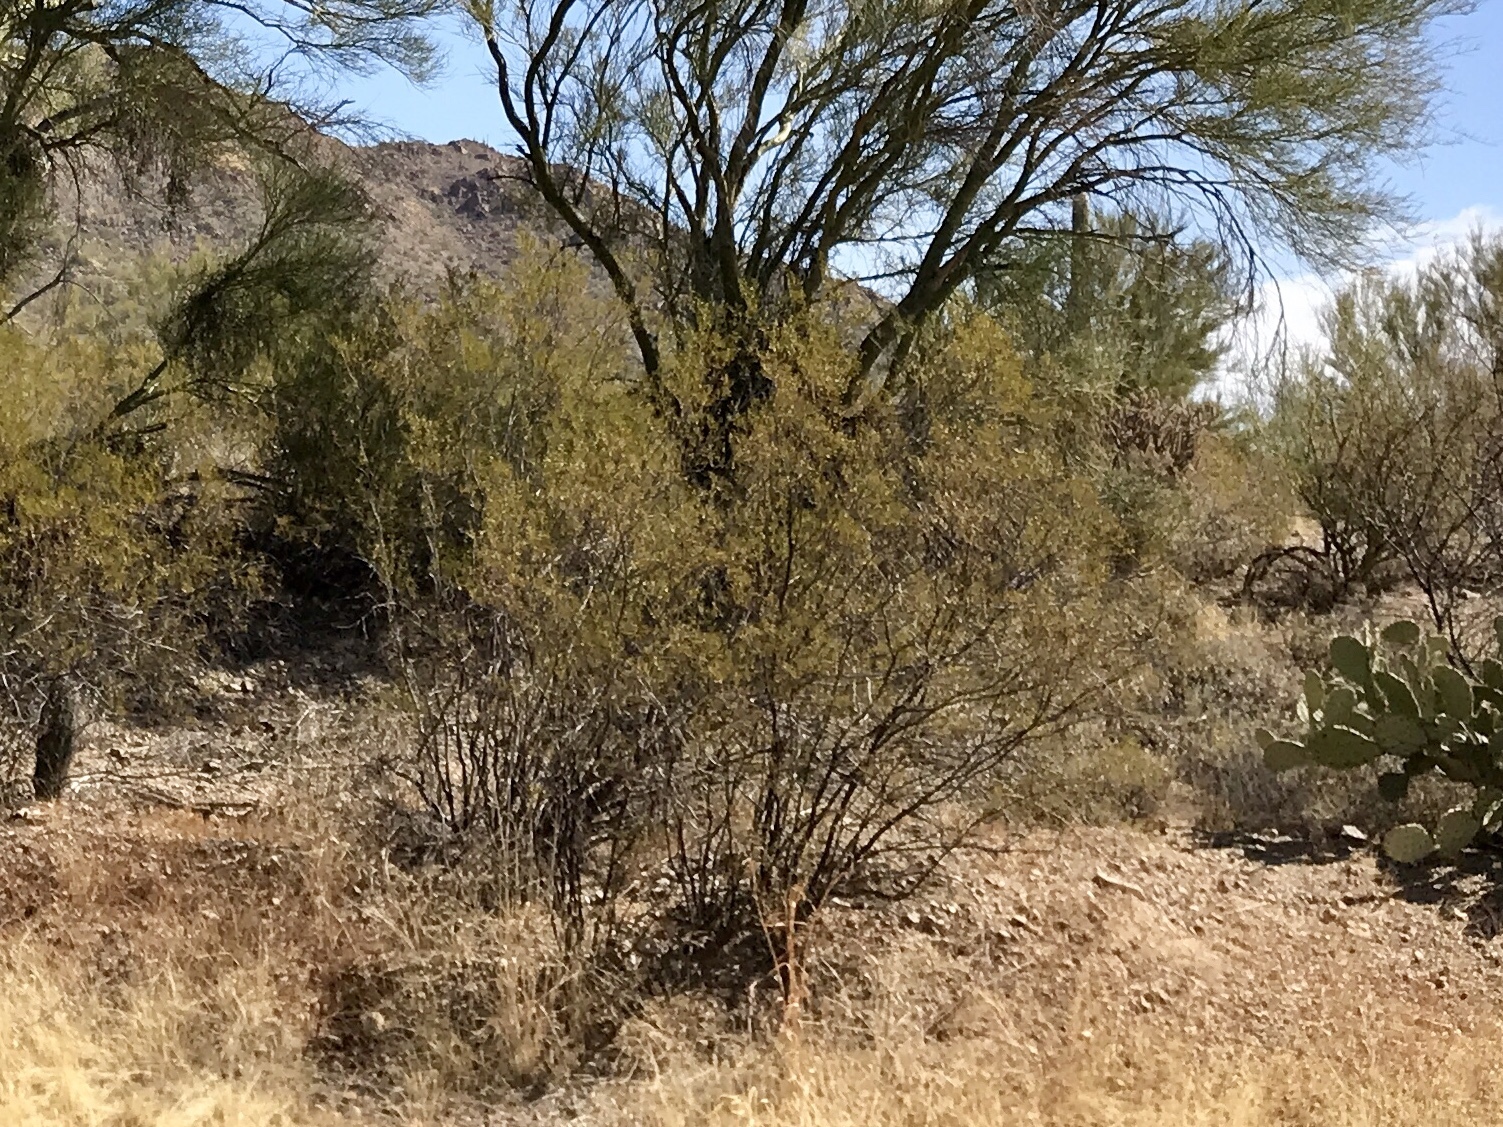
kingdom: Plantae
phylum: Tracheophyta
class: Magnoliopsida
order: Zygophyllales
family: Zygophyllaceae
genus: Larrea
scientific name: Larrea tridentata
